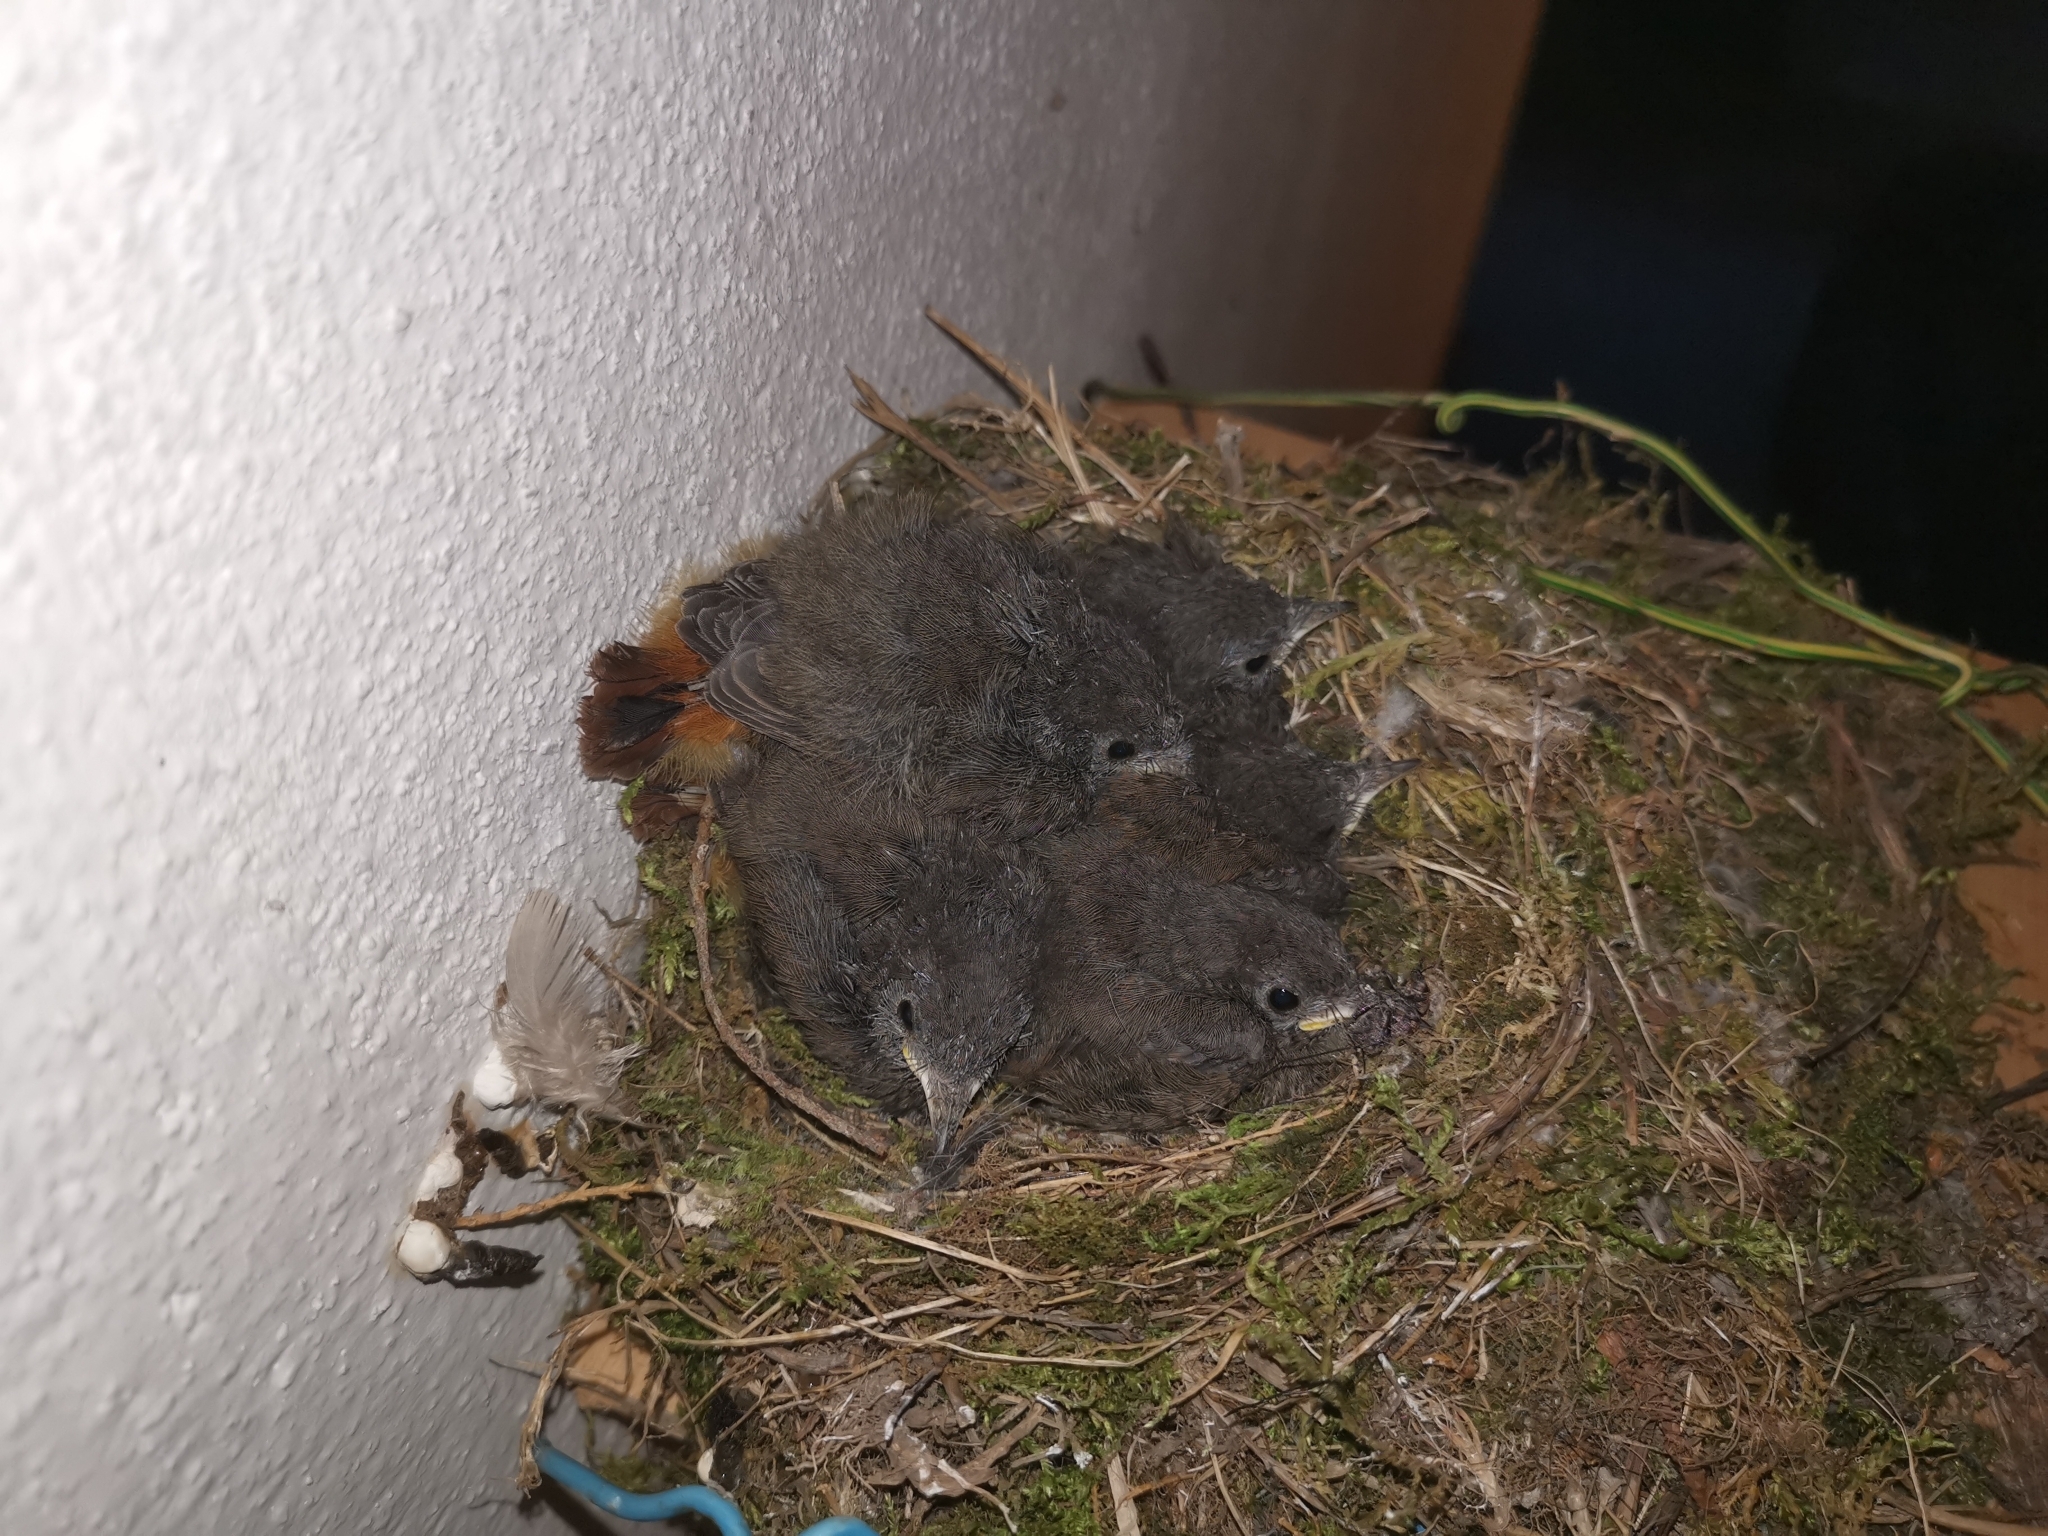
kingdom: Animalia
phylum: Chordata
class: Aves
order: Passeriformes
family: Muscicapidae
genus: Phoenicurus
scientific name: Phoenicurus ochruros
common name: Black redstart
